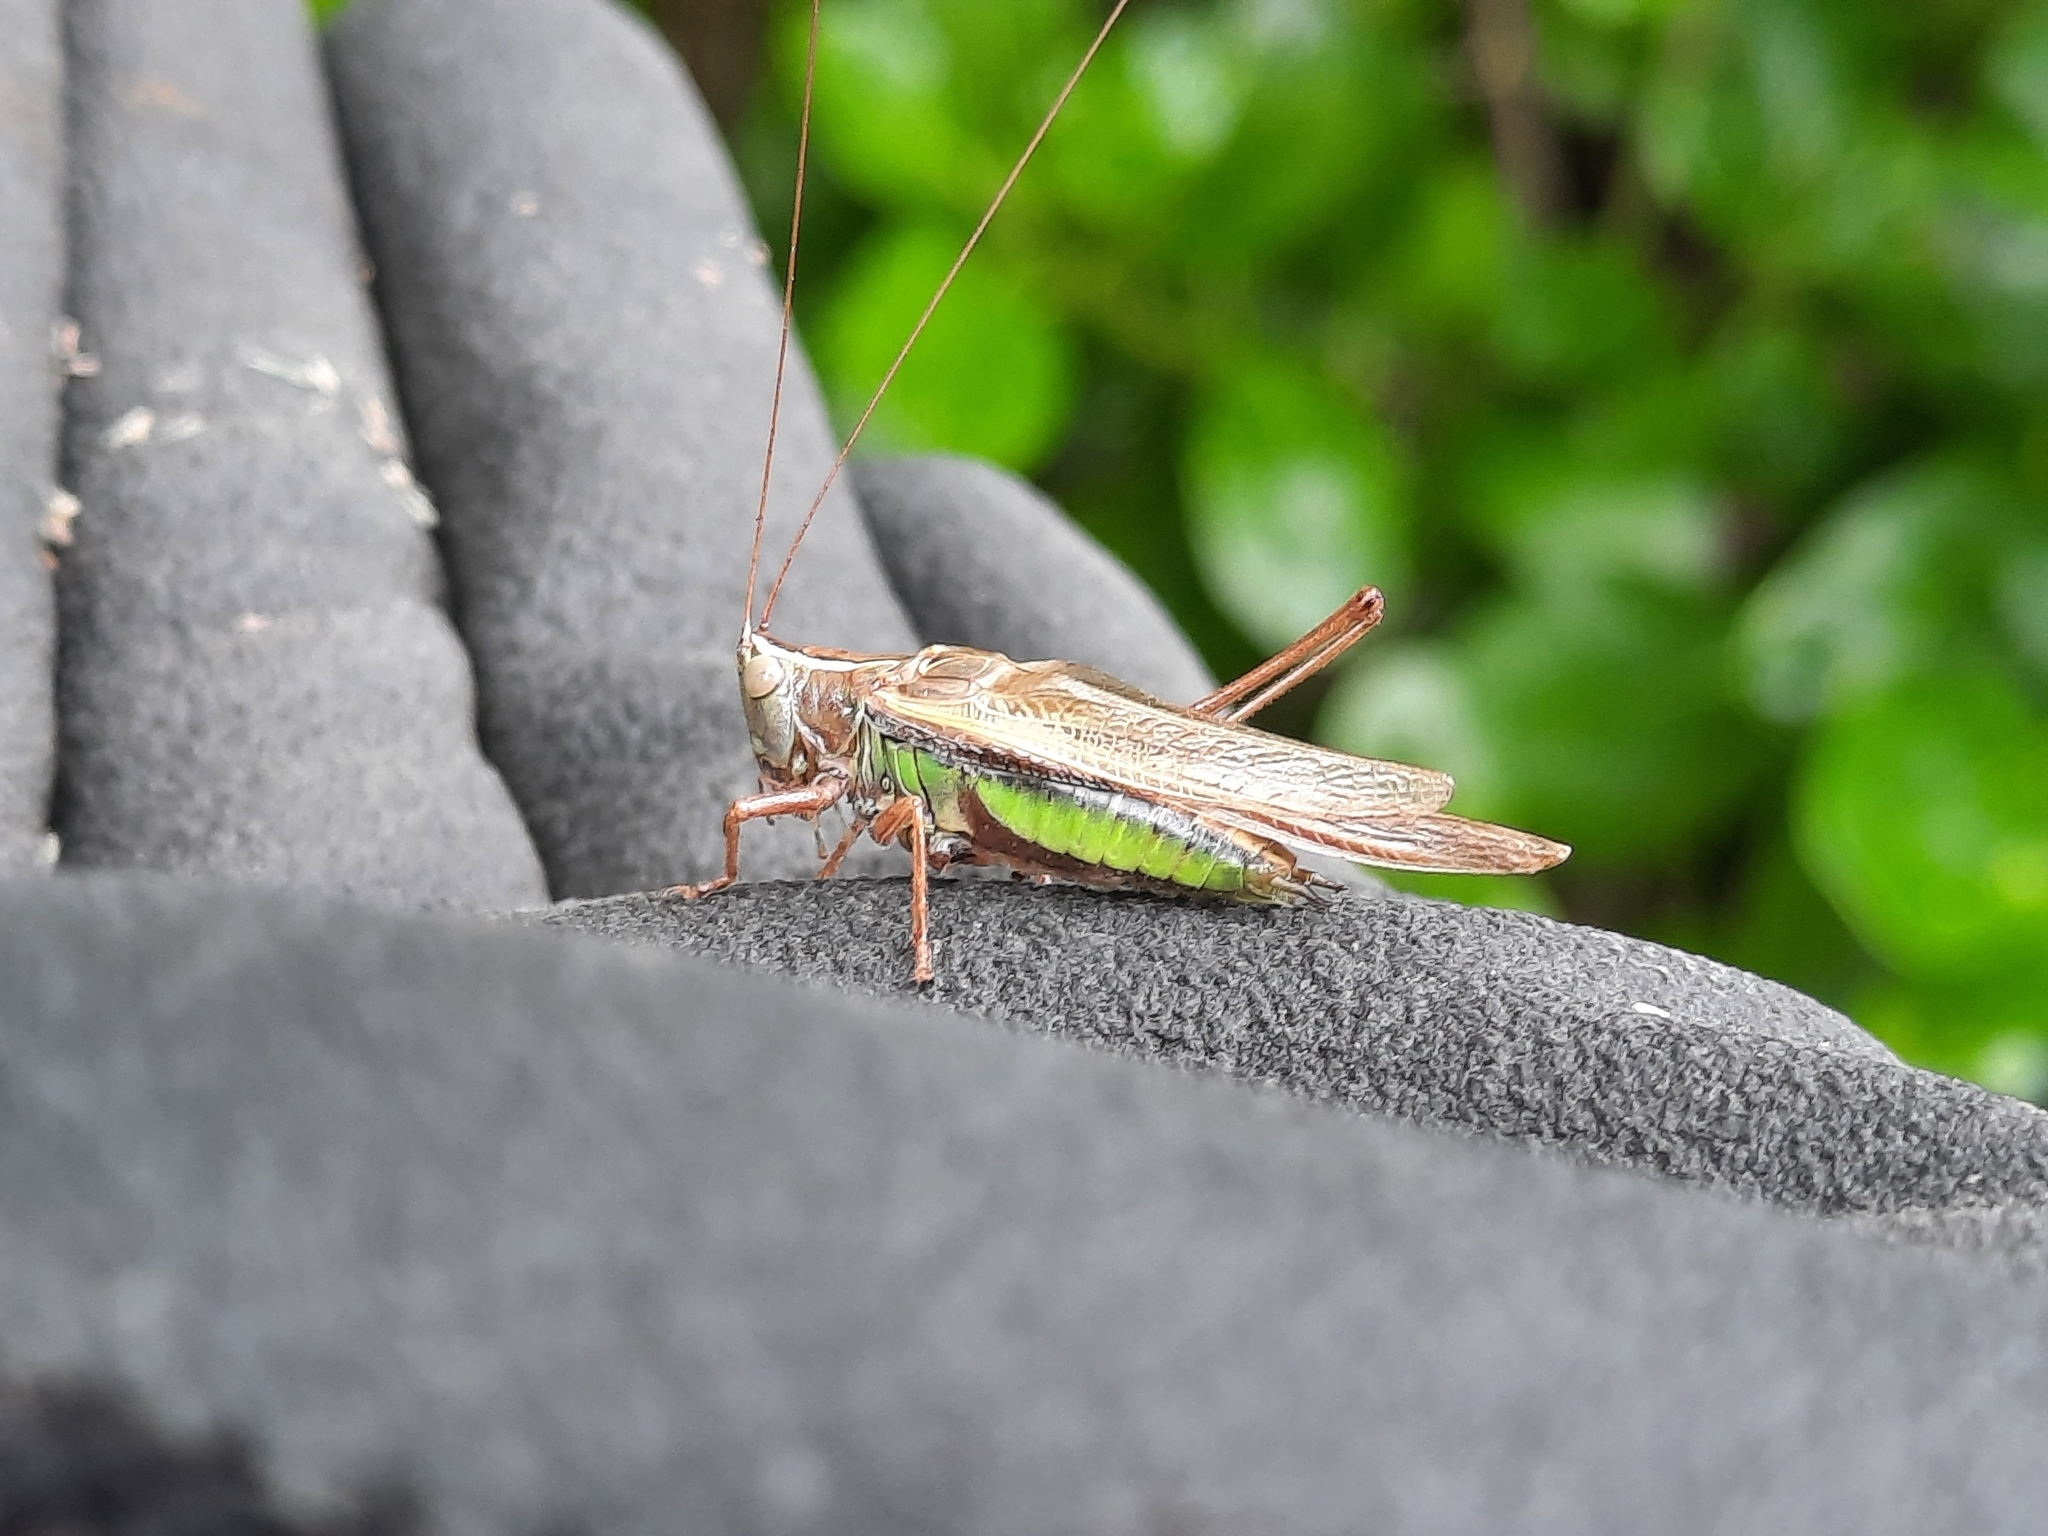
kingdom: Animalia
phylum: Arthropoda
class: Insecta
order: Orthoptera
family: Tettigoniidae
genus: Conocephalus
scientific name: Conocephalus albescens
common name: Whitish meadow katydid
